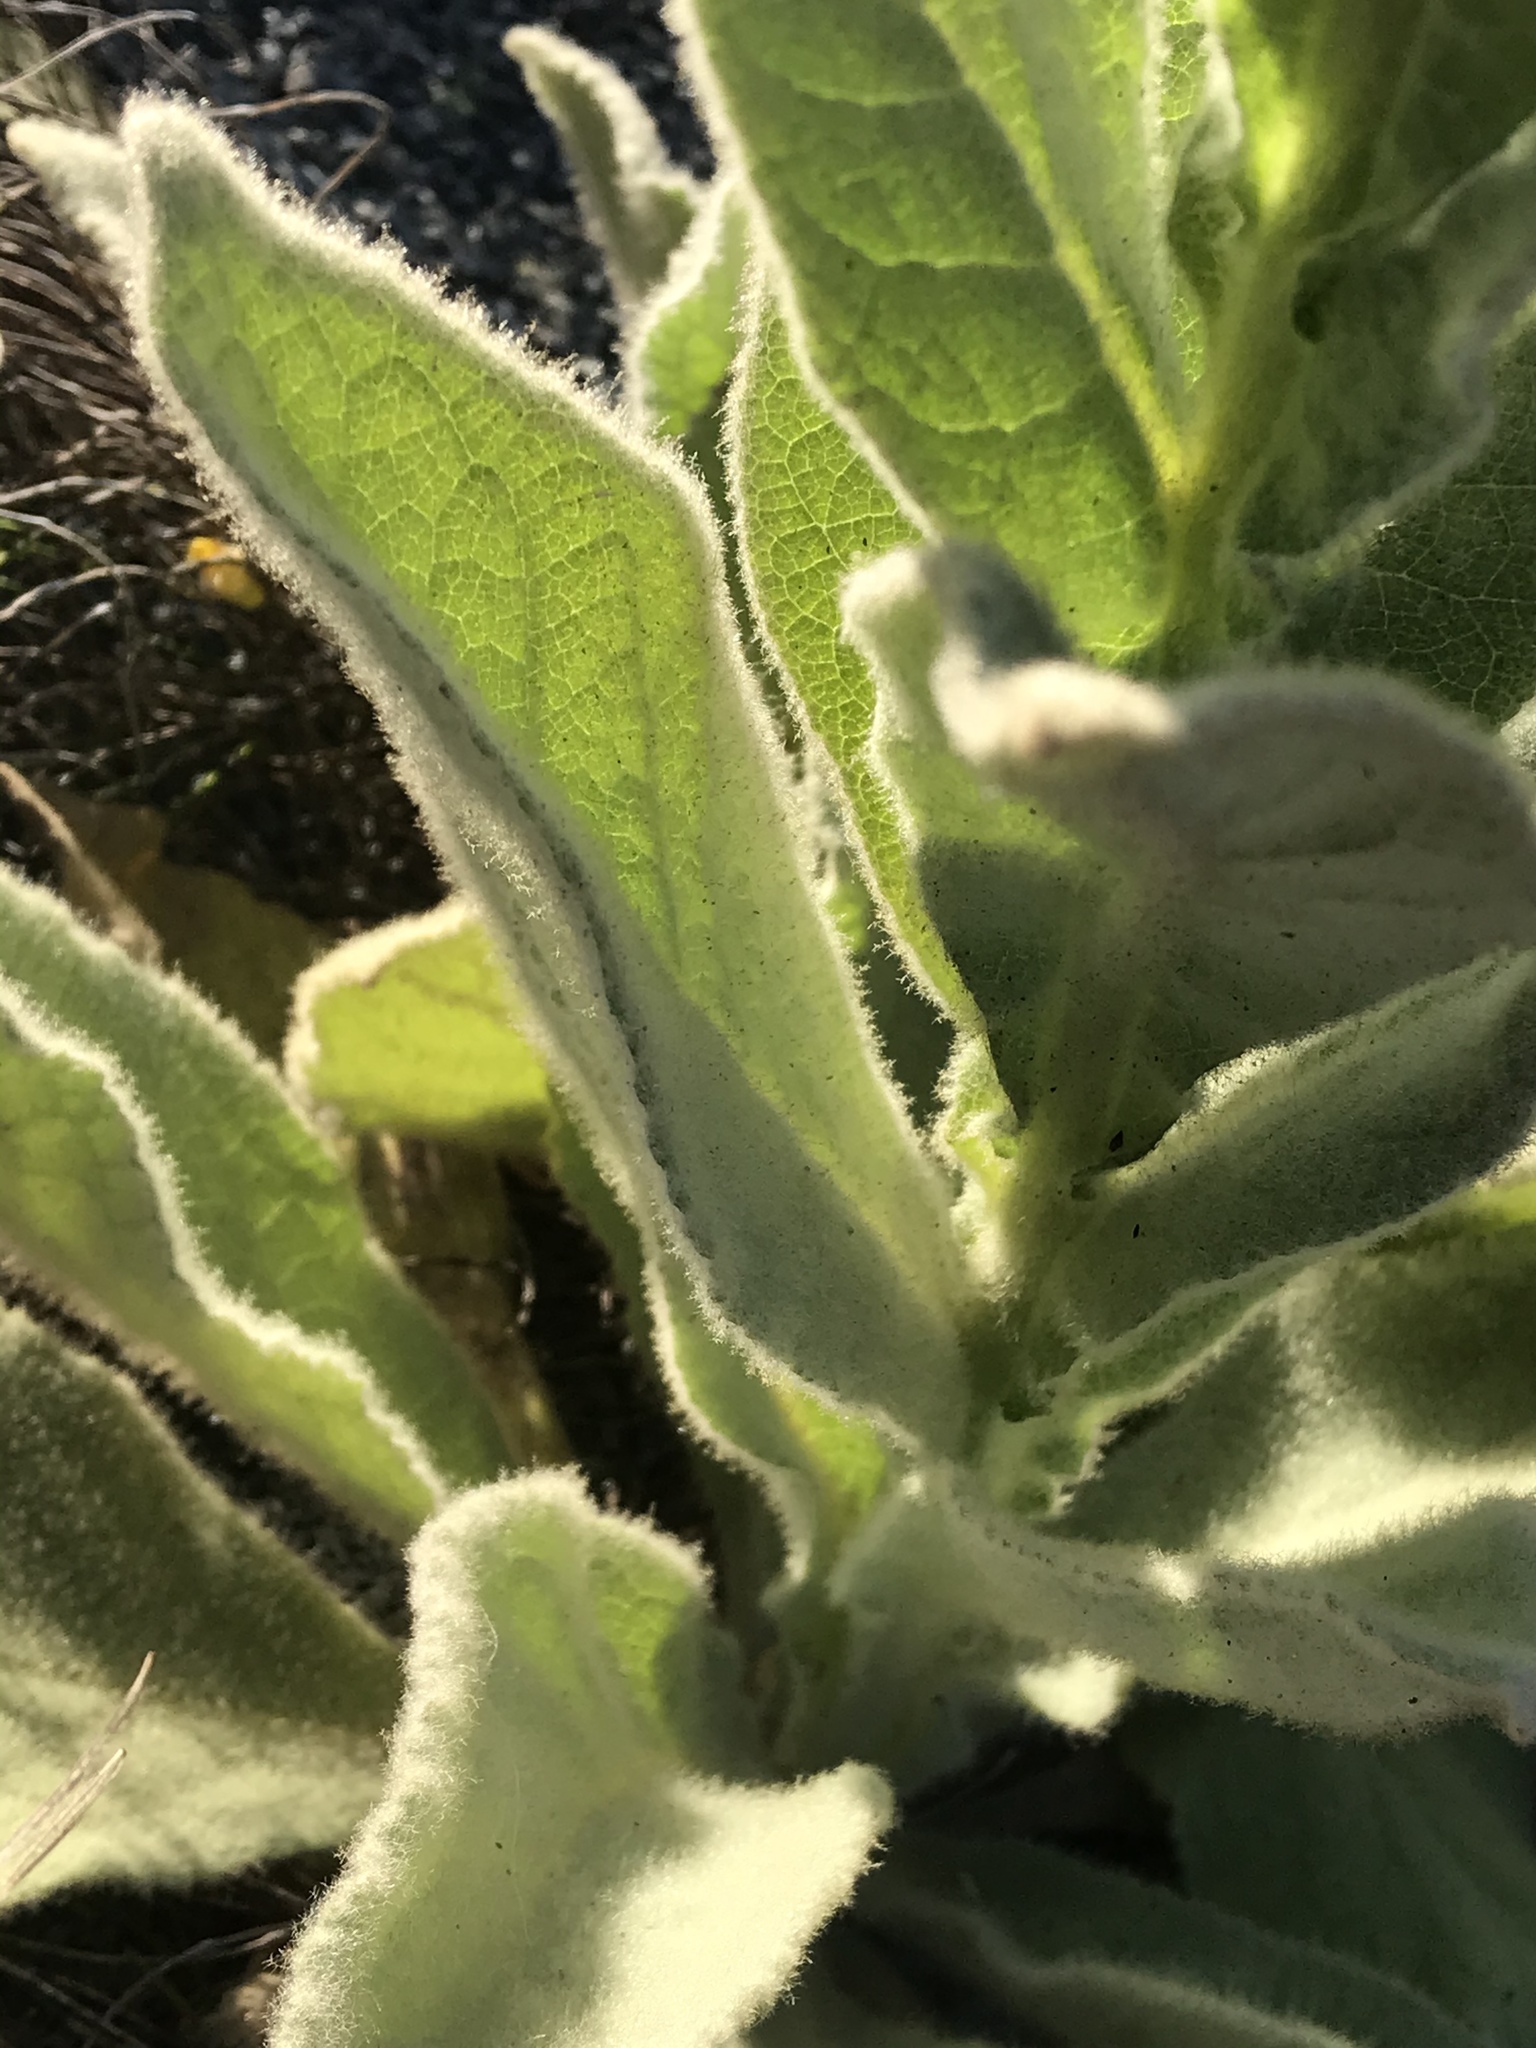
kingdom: Plantae
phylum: Tracheophyta
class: Magnoliopsida
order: Lamiales
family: Scrophulariaceae
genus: Verbascum
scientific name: Verbascum thapsus
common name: Common mullein
